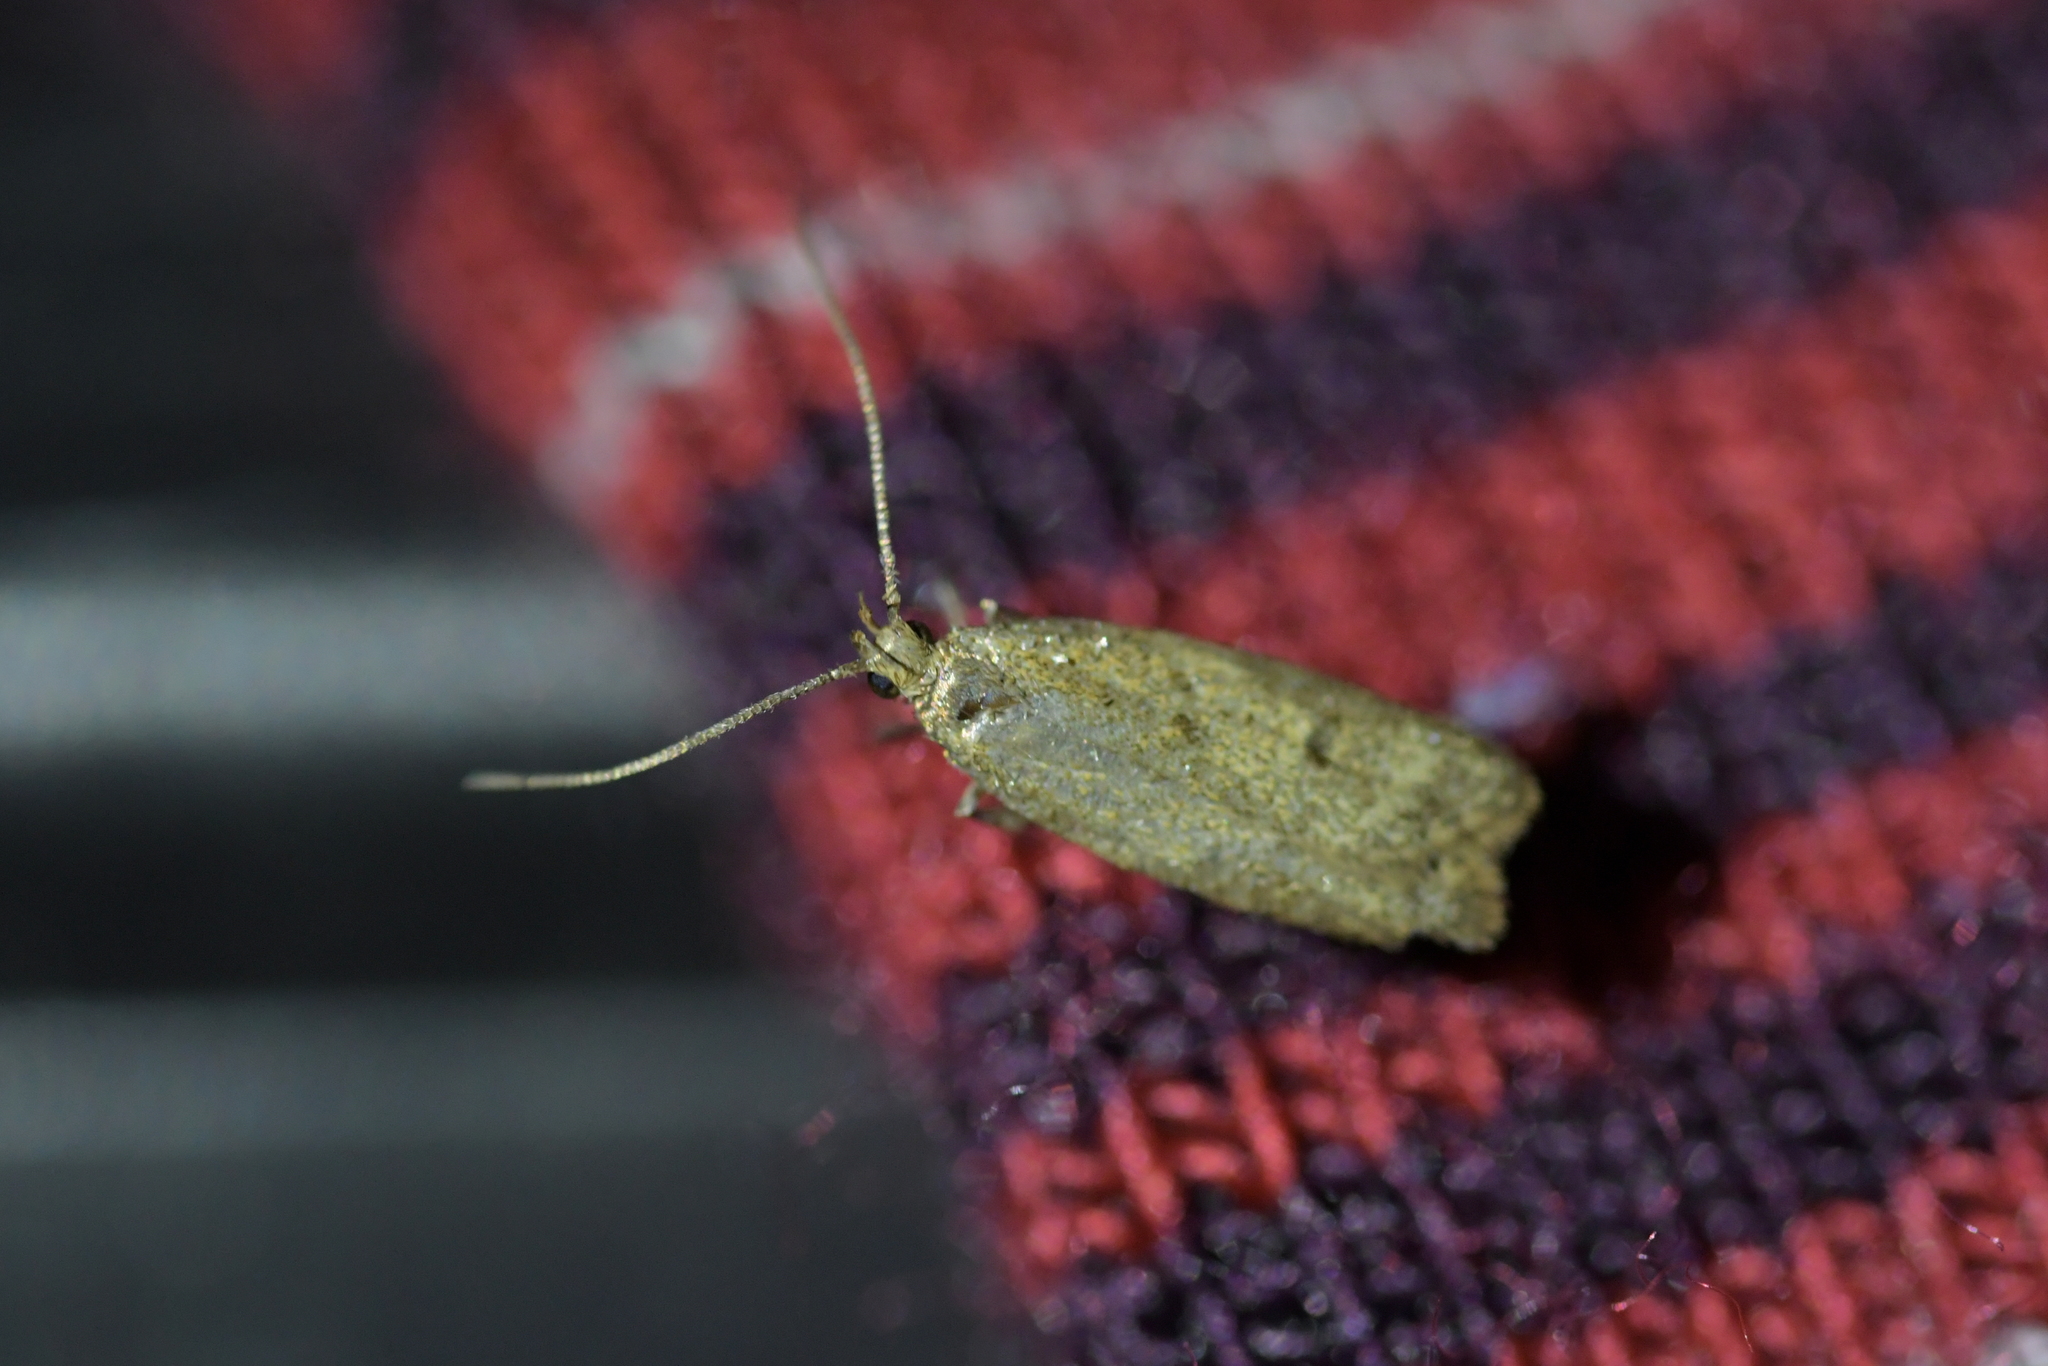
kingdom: Animalia
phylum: Arthropoda
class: Insecta
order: Lepidoptera
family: Oecophoridae
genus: Gymnobathra
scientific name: Gymnobathra tholodella
